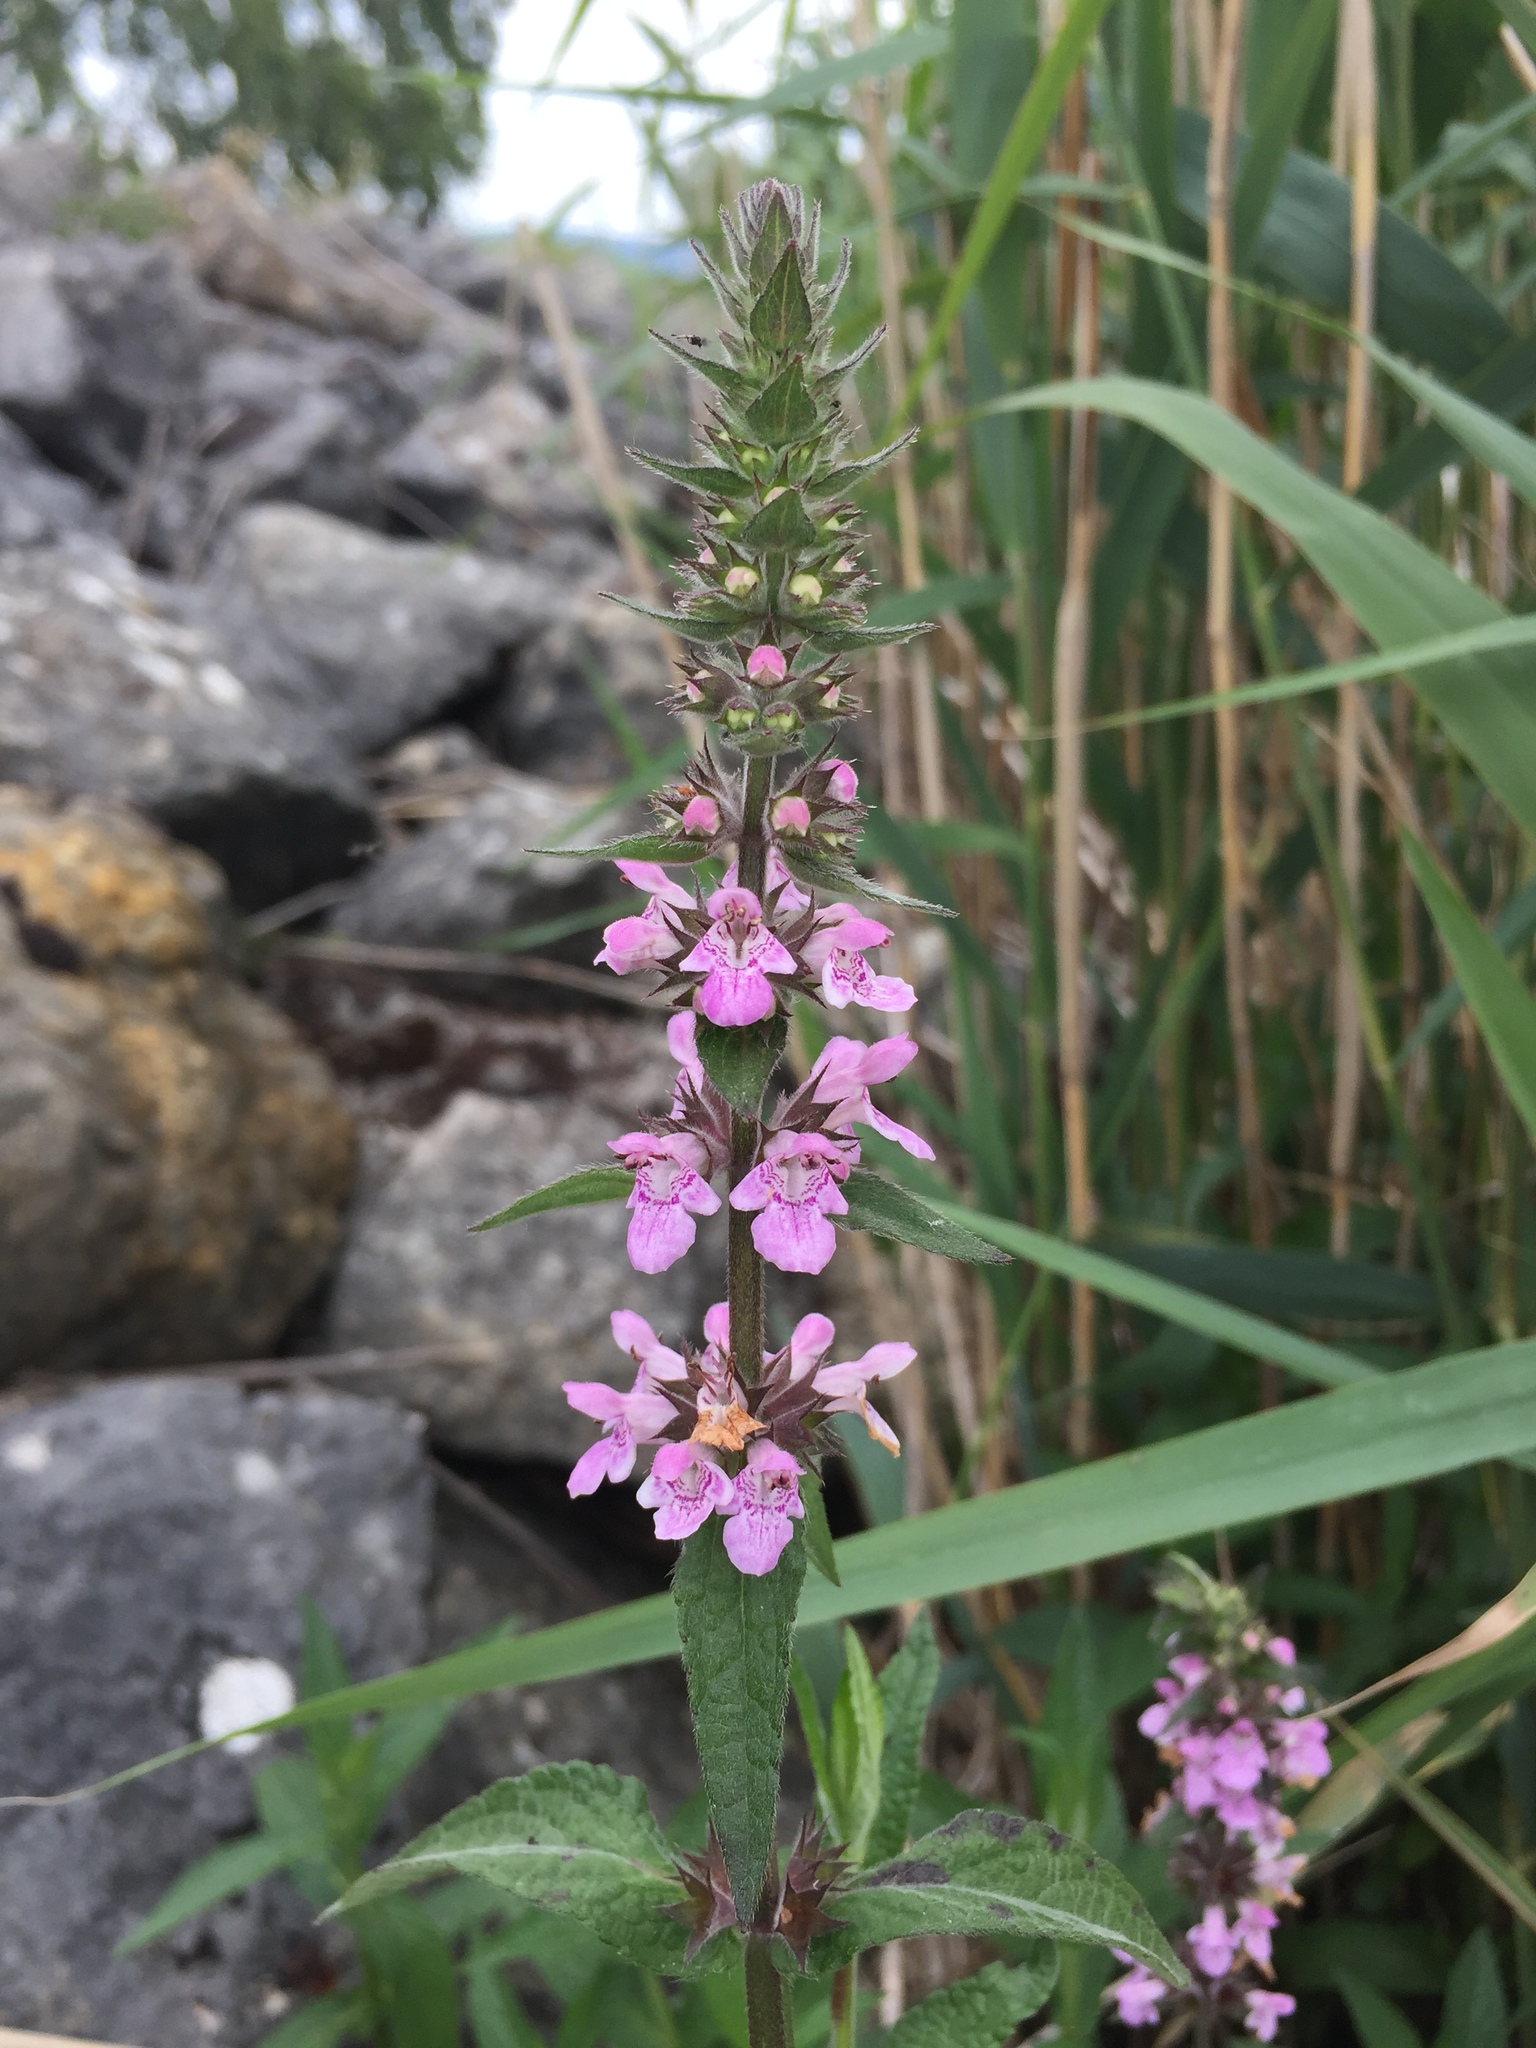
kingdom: Plantae
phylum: Tracheophyta
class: Magnoliopsida
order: Lamiales
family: Lamiaceae
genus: Stachys
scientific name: Stachys palustris
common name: Marsh woundwort
